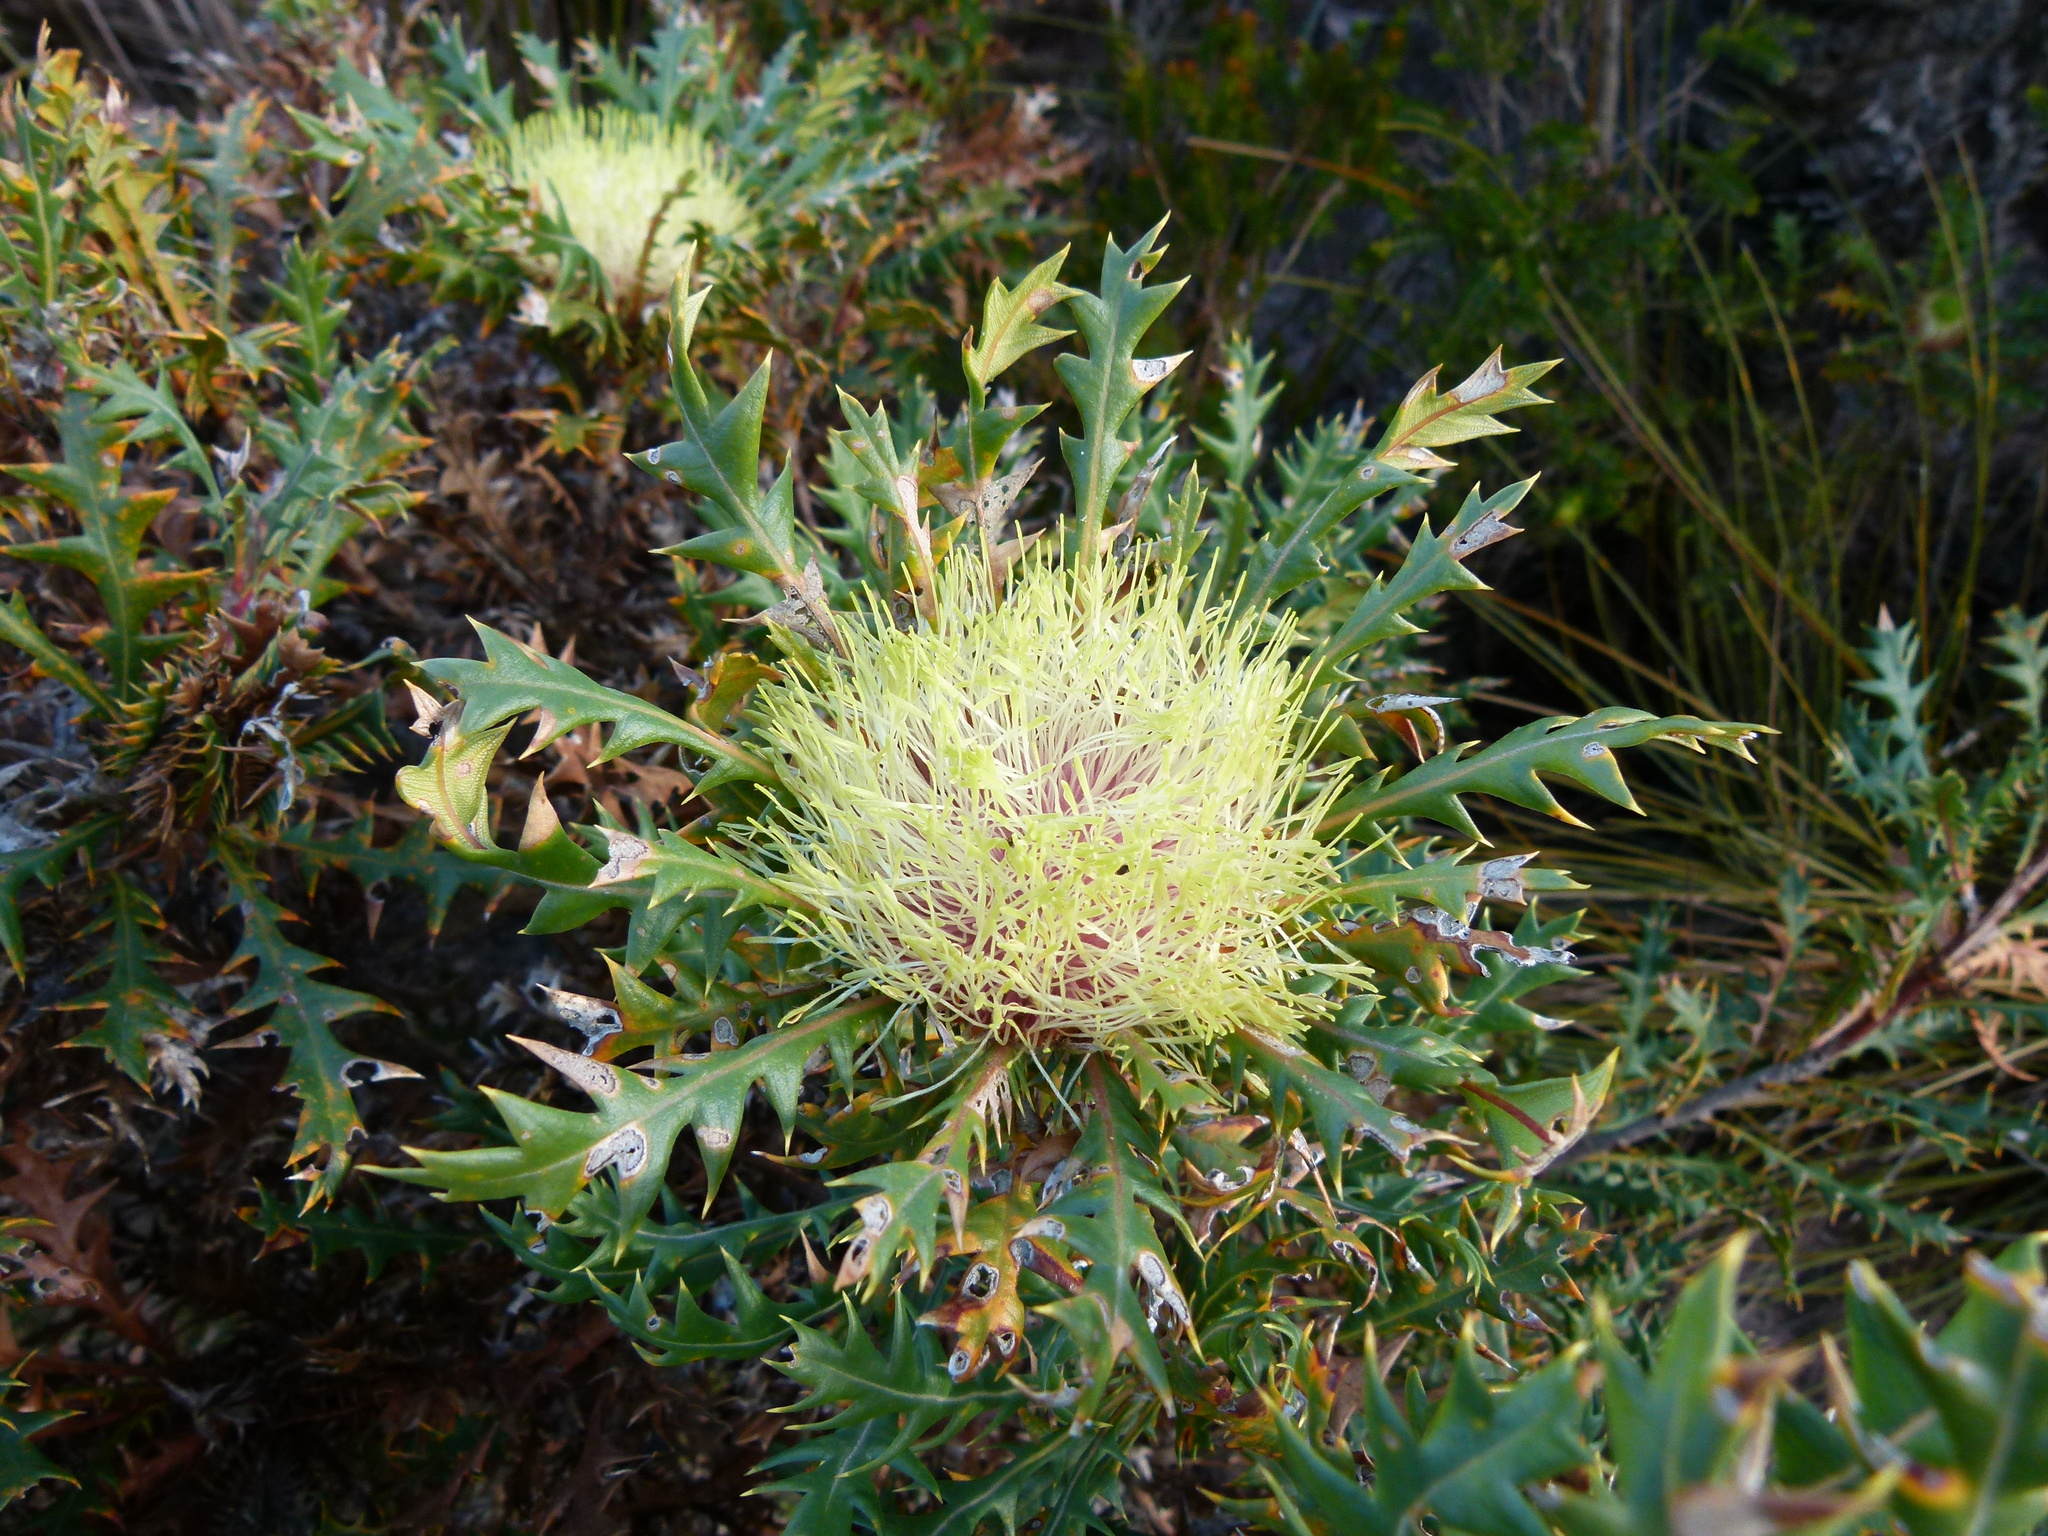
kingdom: Plantae
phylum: Tracheophyta
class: Magnoliopsida
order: Proteales
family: Proteaceae
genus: Banksia
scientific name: Banksia armata
